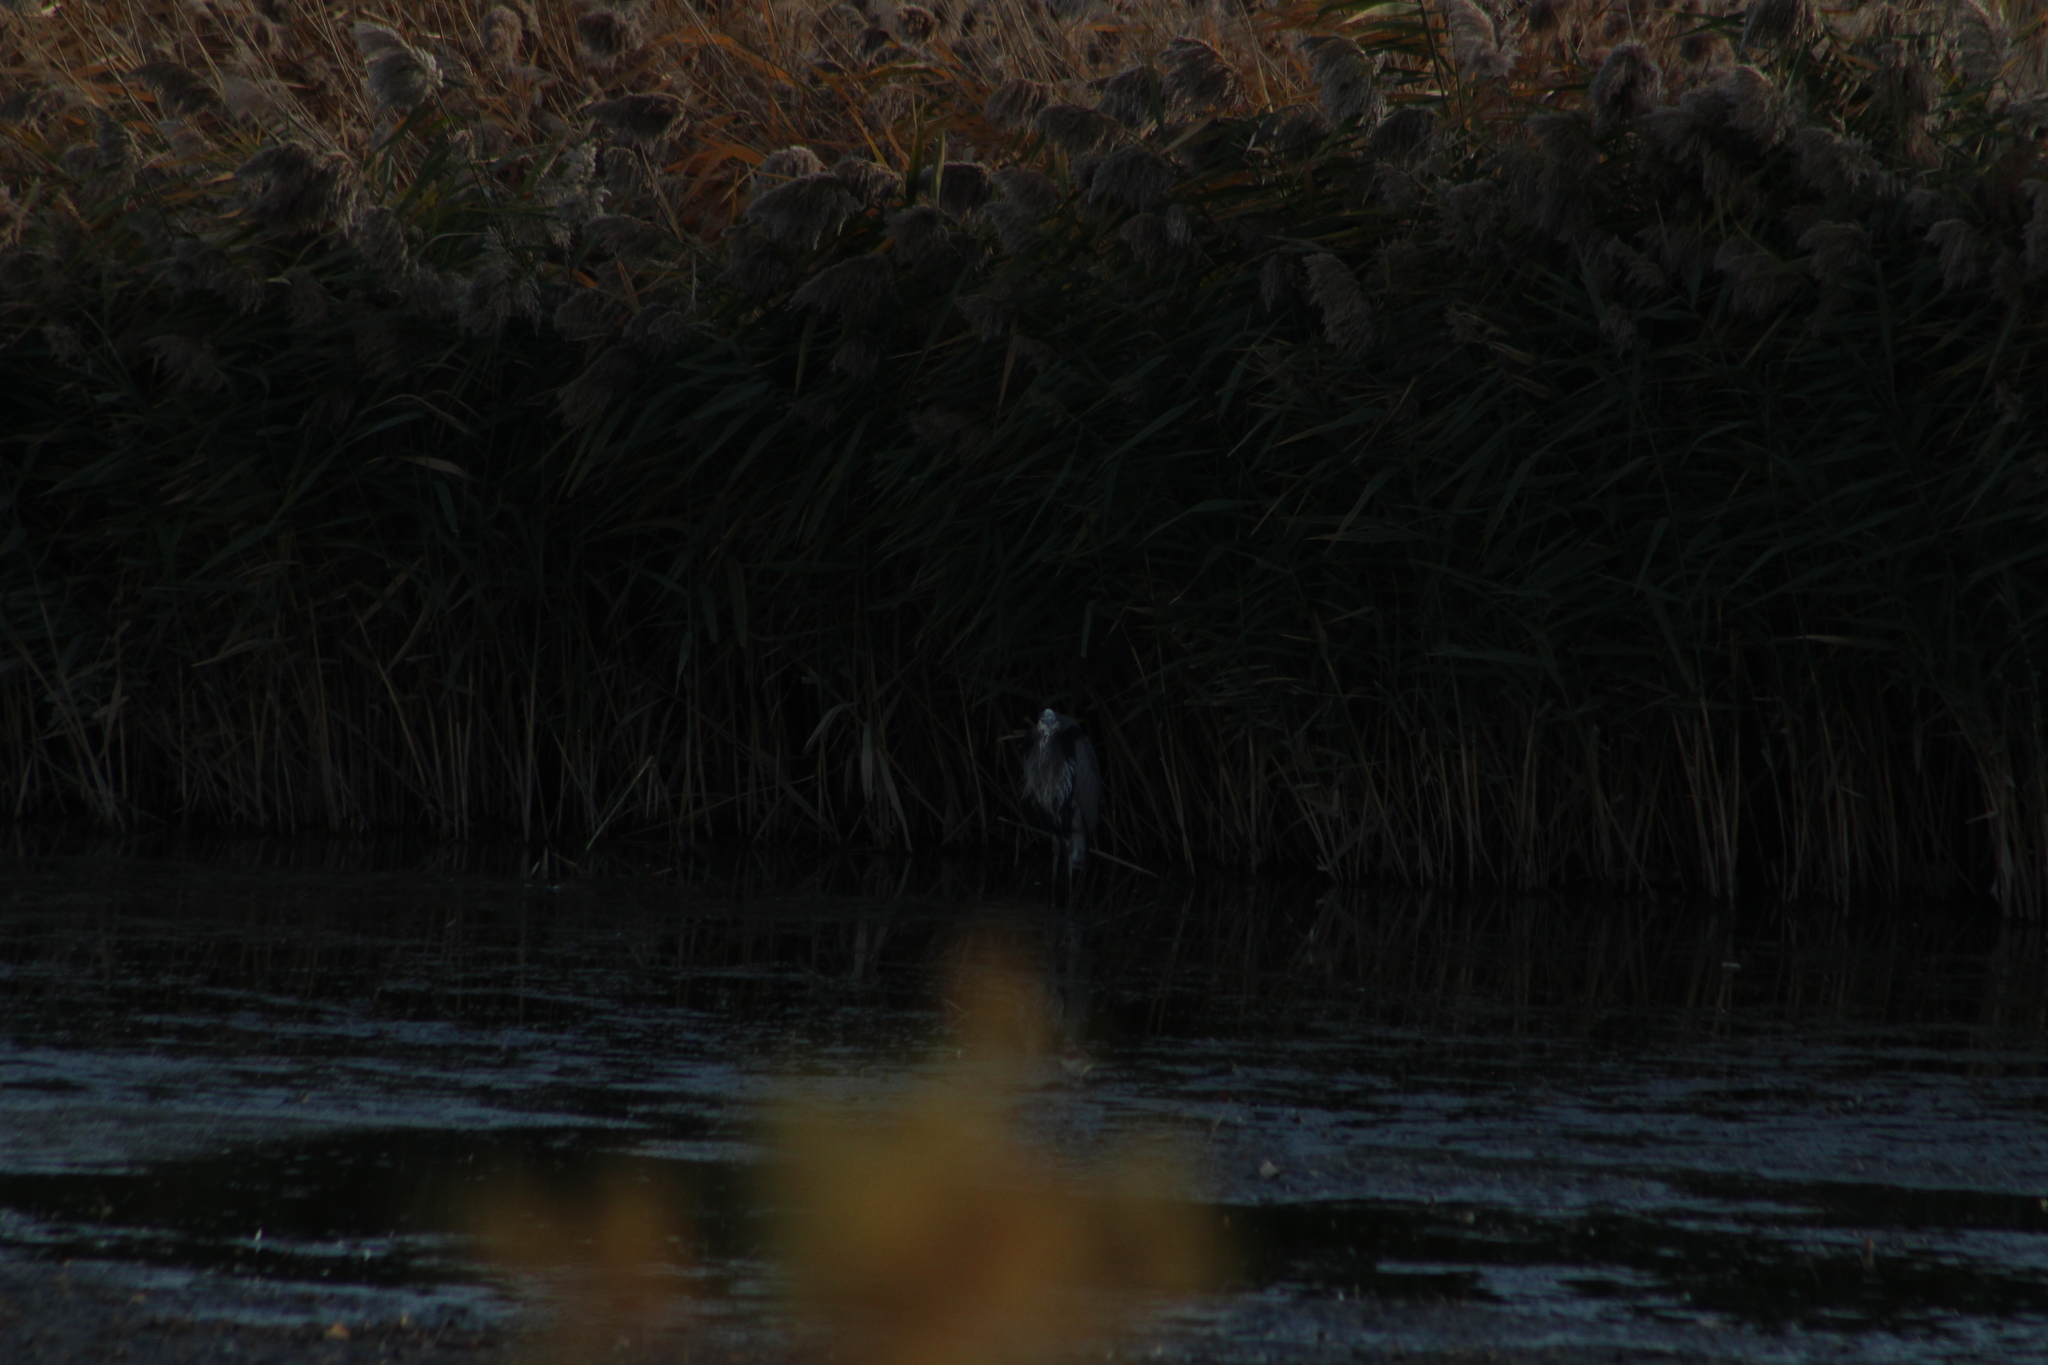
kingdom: Animalia
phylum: Chordata
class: Aves
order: Pelecaniformes
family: Ardeidae
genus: Ardea
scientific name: Ardea herodias
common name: Great blue heron
